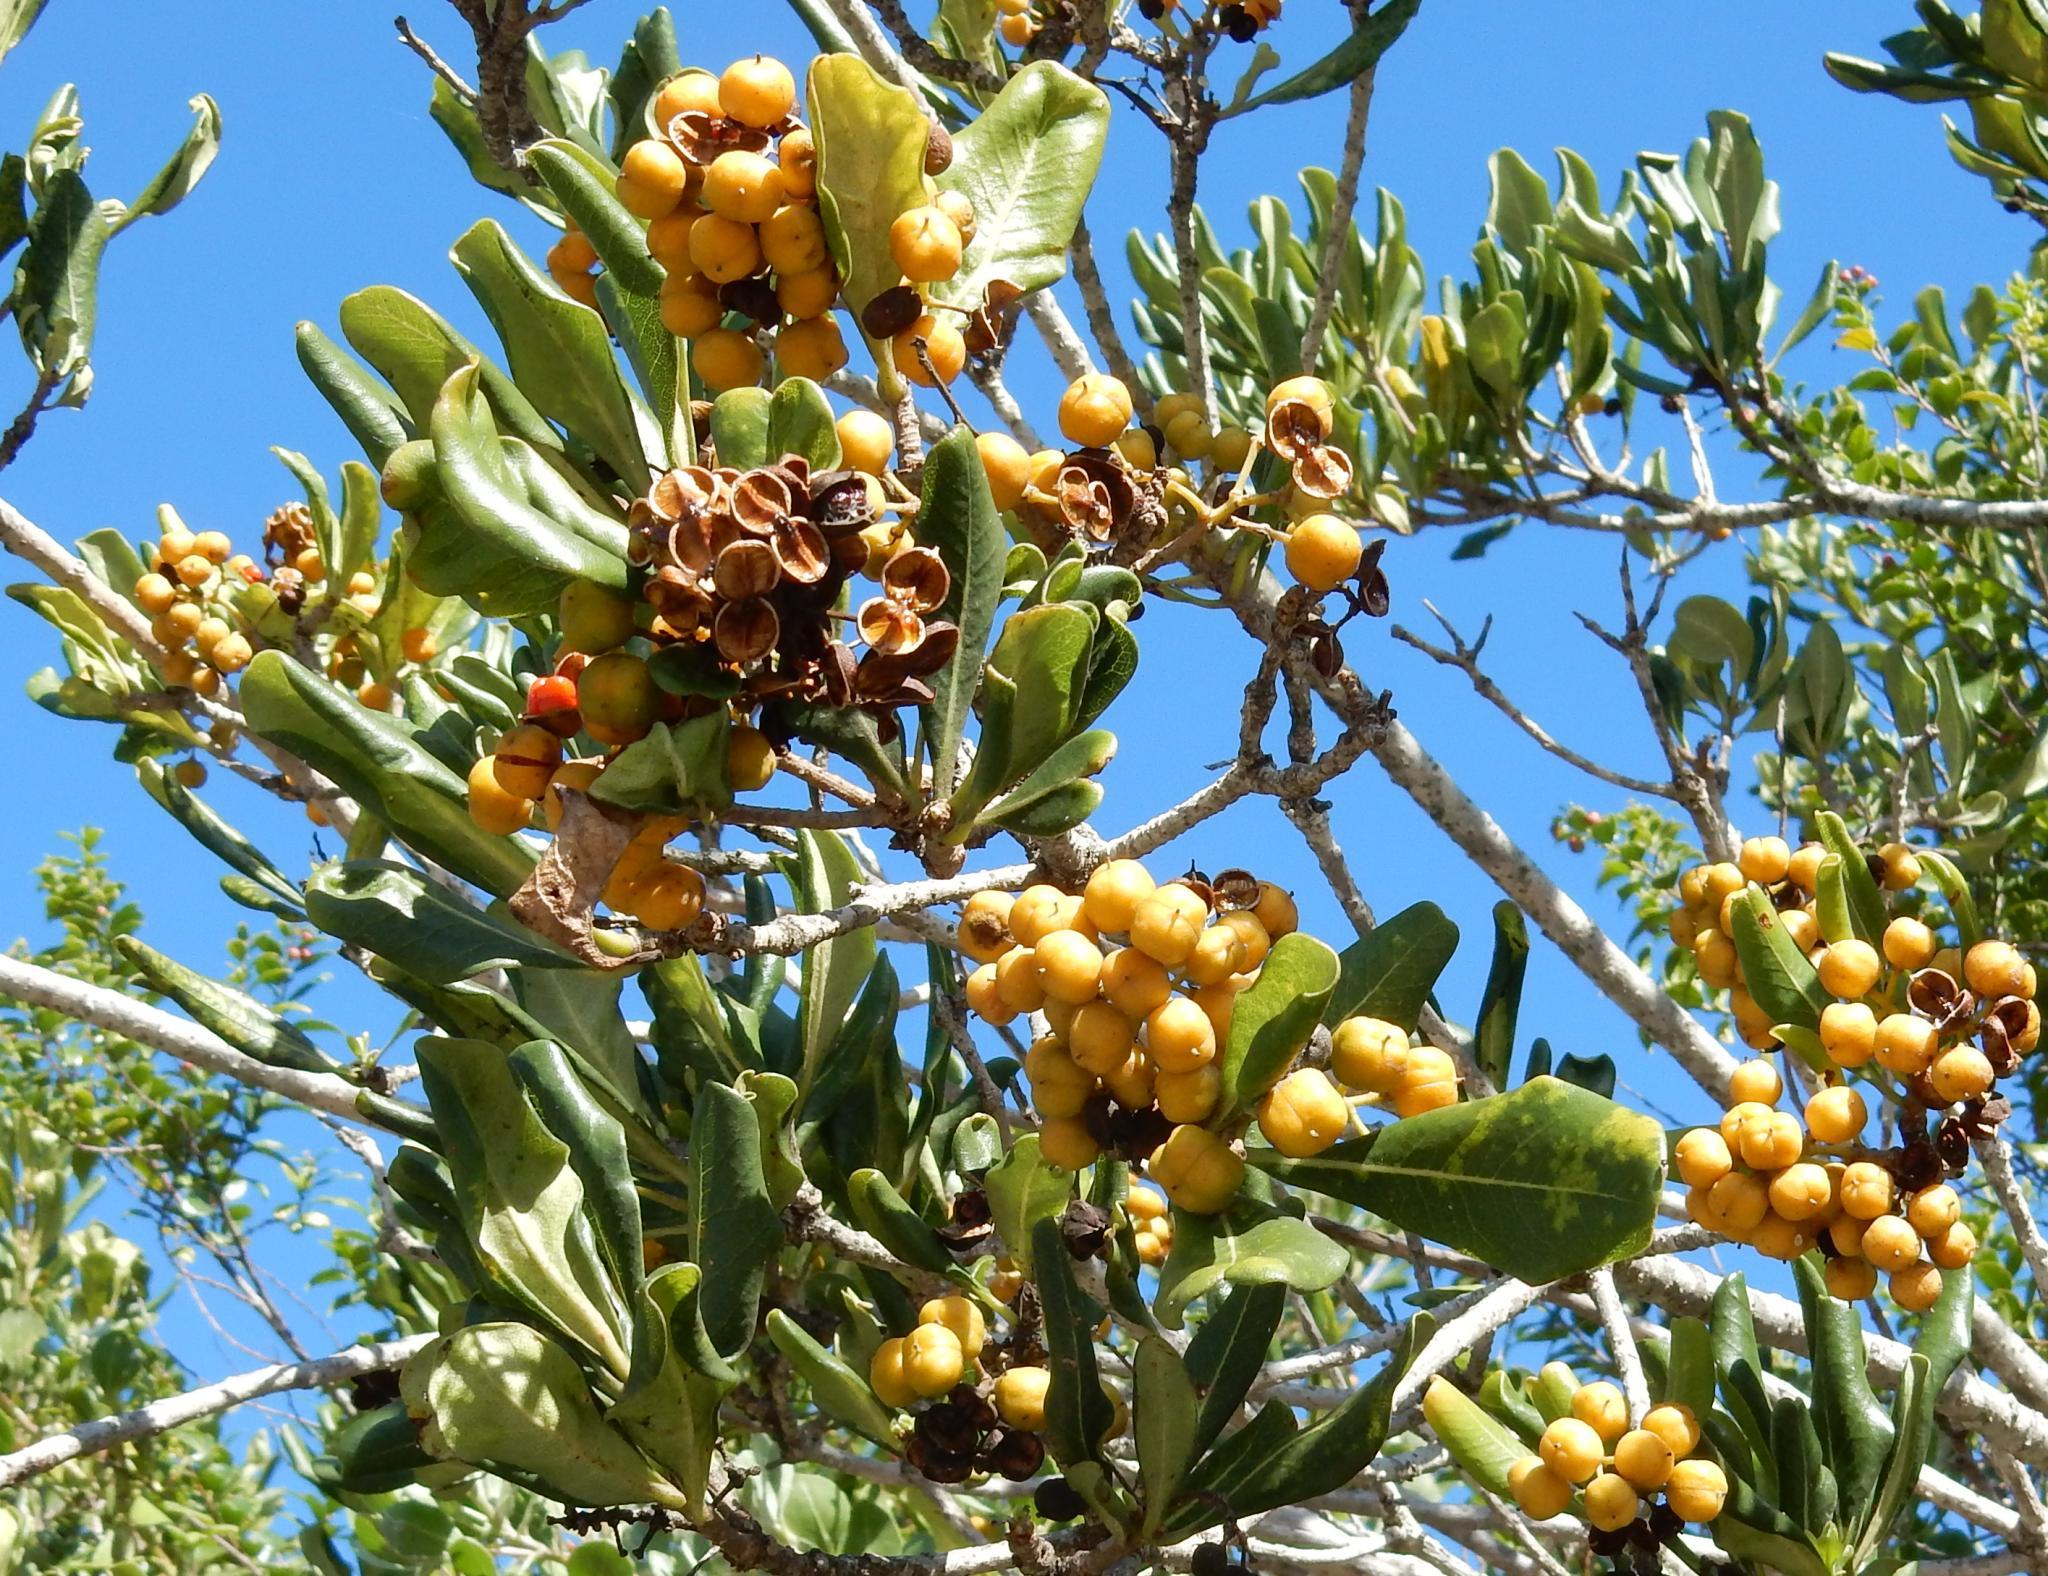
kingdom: Plantae
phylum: Tracheophyta
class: Magnoliopsida
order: Apiales
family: Pittosporaceae
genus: Pittosporum
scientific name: Pittosporum viridiflorum
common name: Cape cheesewood
